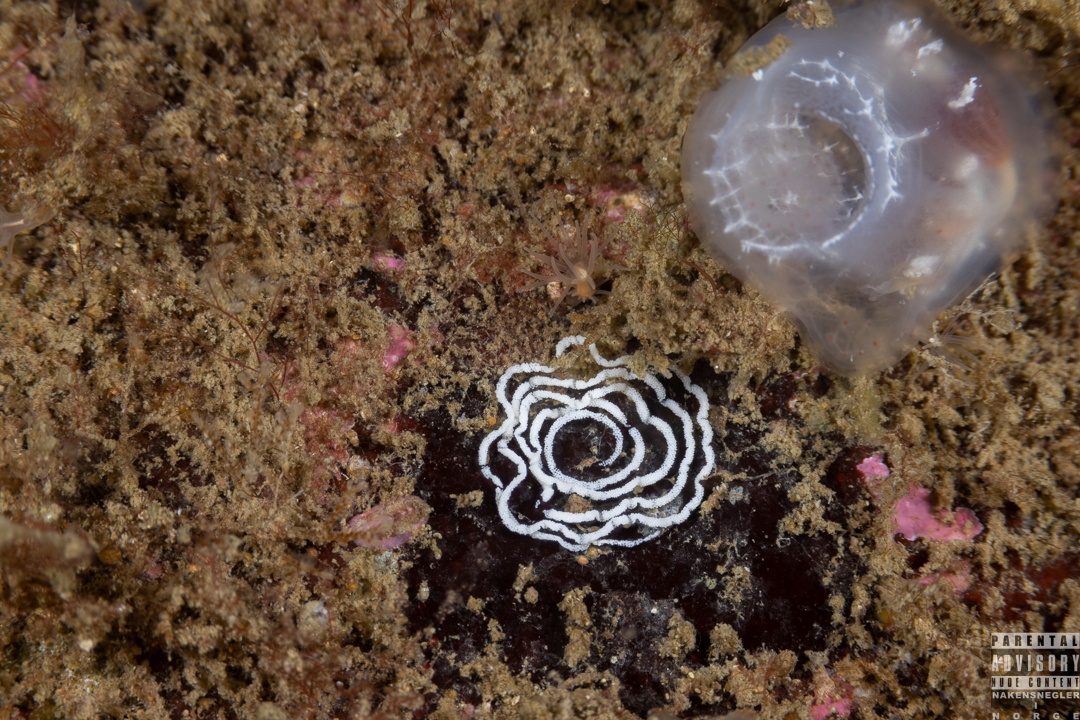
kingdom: Animalia
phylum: Mollusca
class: Gastropoda
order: Nudibranchia
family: Tritoniidae
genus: Duvaucelia
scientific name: Duvaucelia plebeia
